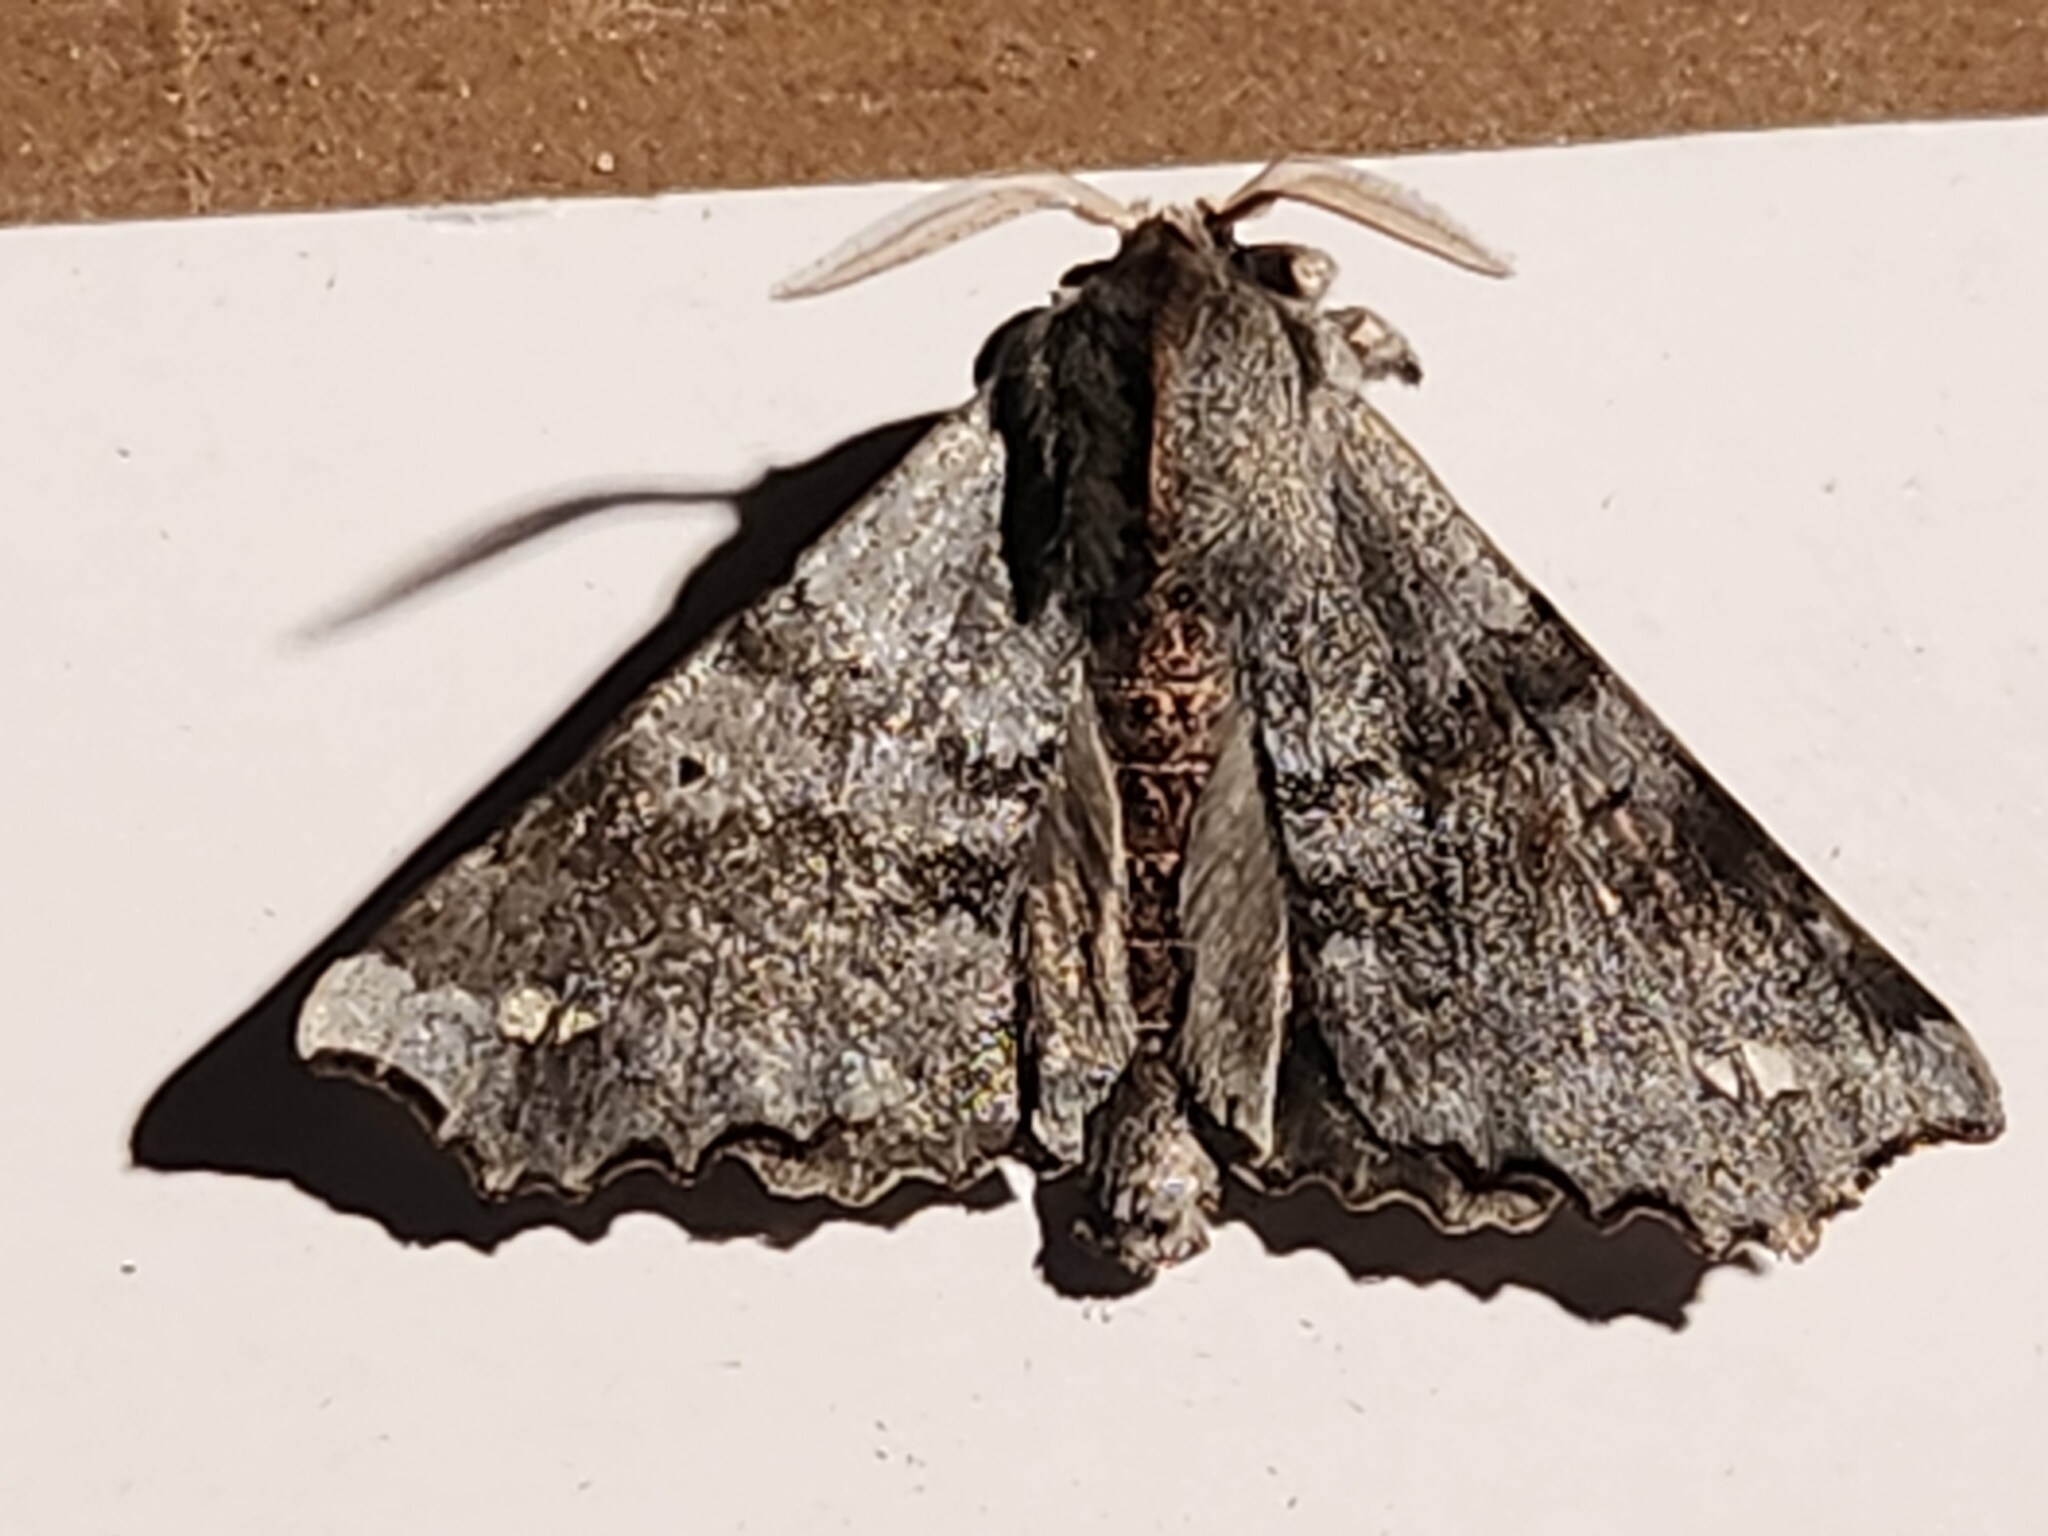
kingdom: Animalia
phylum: Arthropoda
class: Insecta
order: Lepidoptera
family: Apatelodidae
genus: Olceclostera
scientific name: Olceclostera angelica
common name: Angel moth
